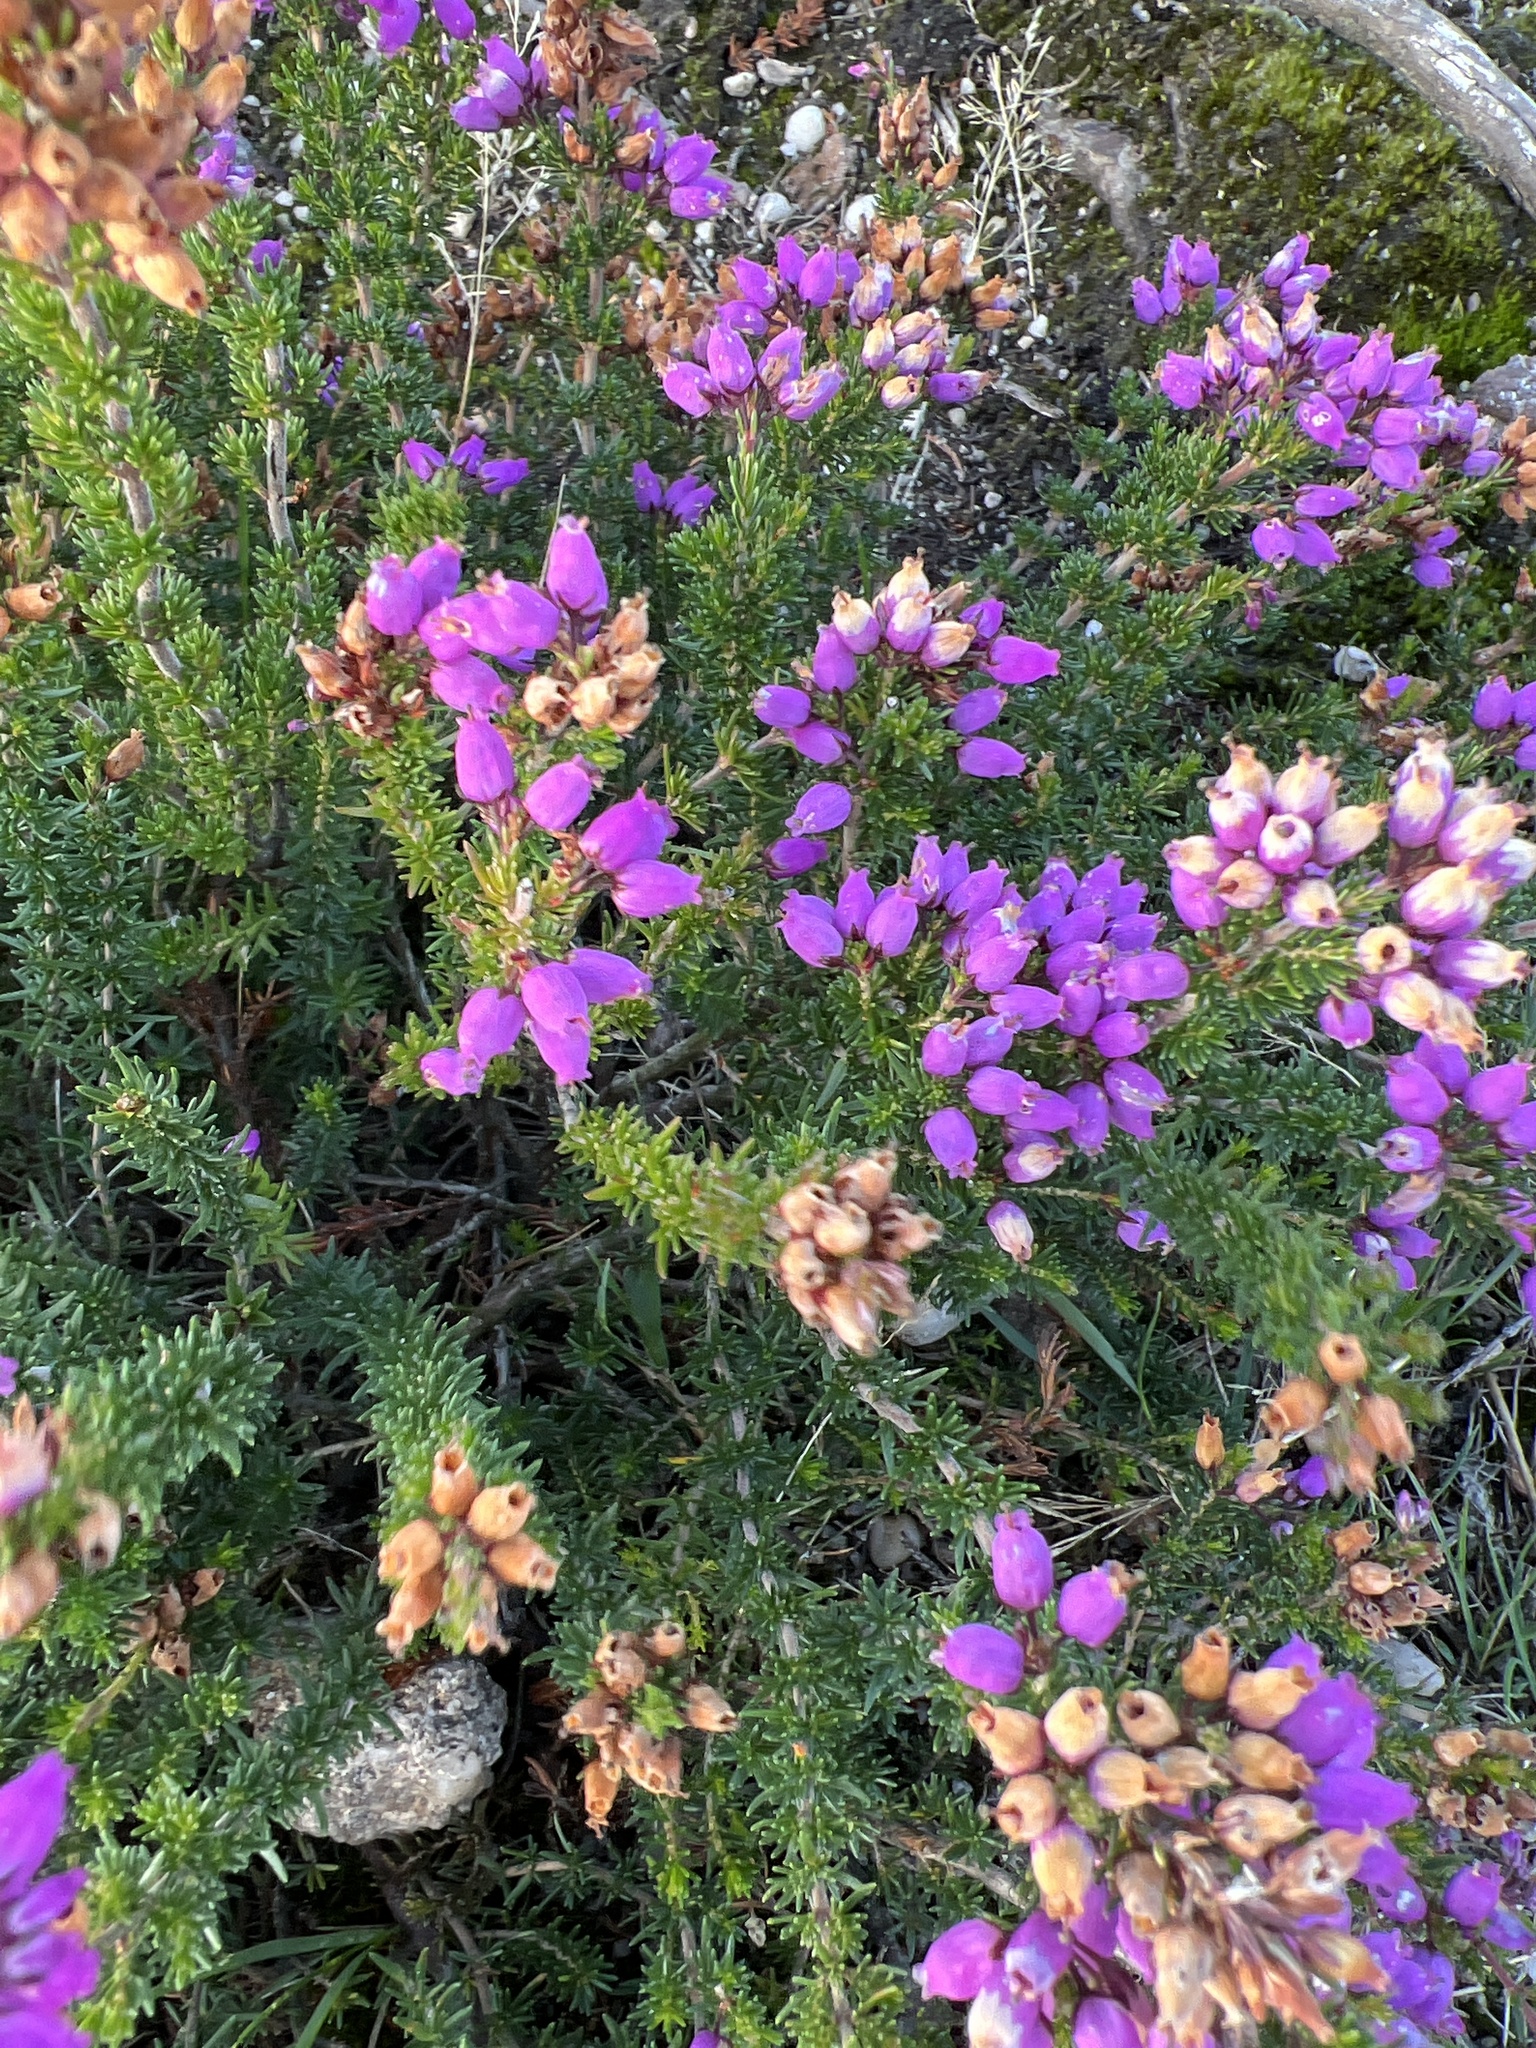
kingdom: Plantae
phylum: Tracheophyta
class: Magnoliopsida
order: Ericales
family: Ericaceae
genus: Erica
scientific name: Erica cinerea
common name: Bell heather
